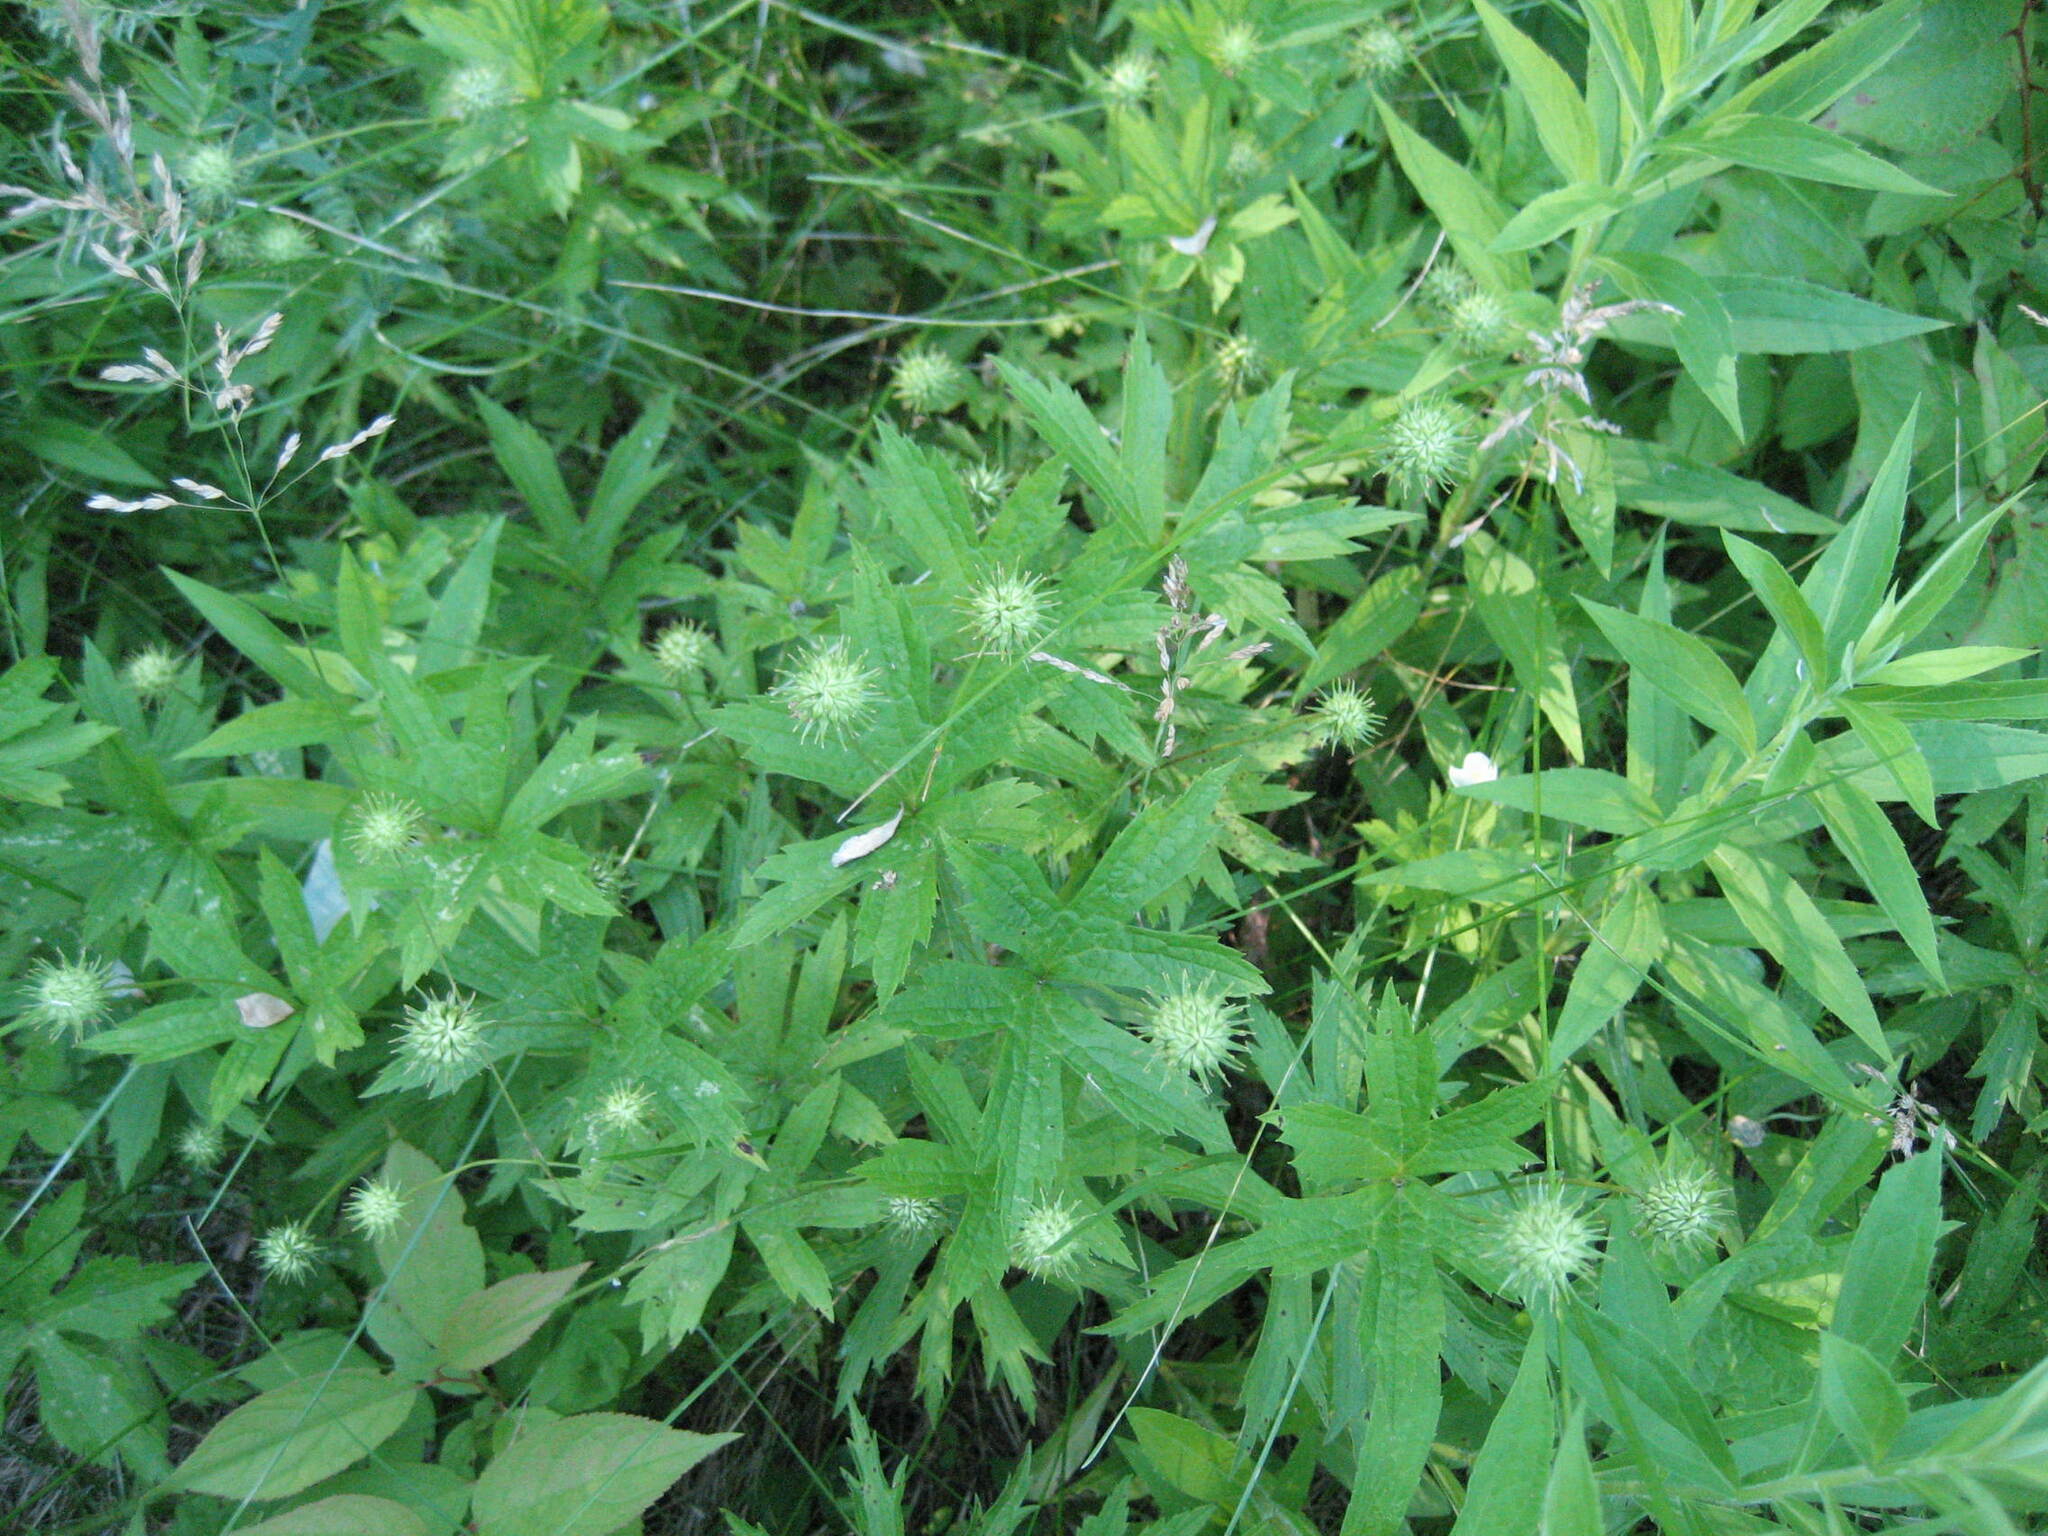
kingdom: Plantae
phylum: Tracheophyta
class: Magnoliopsida
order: Ranunculales
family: Ranunculaceae
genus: Anemonastrum
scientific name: Anemonastrum canadense
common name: Canada anemone
